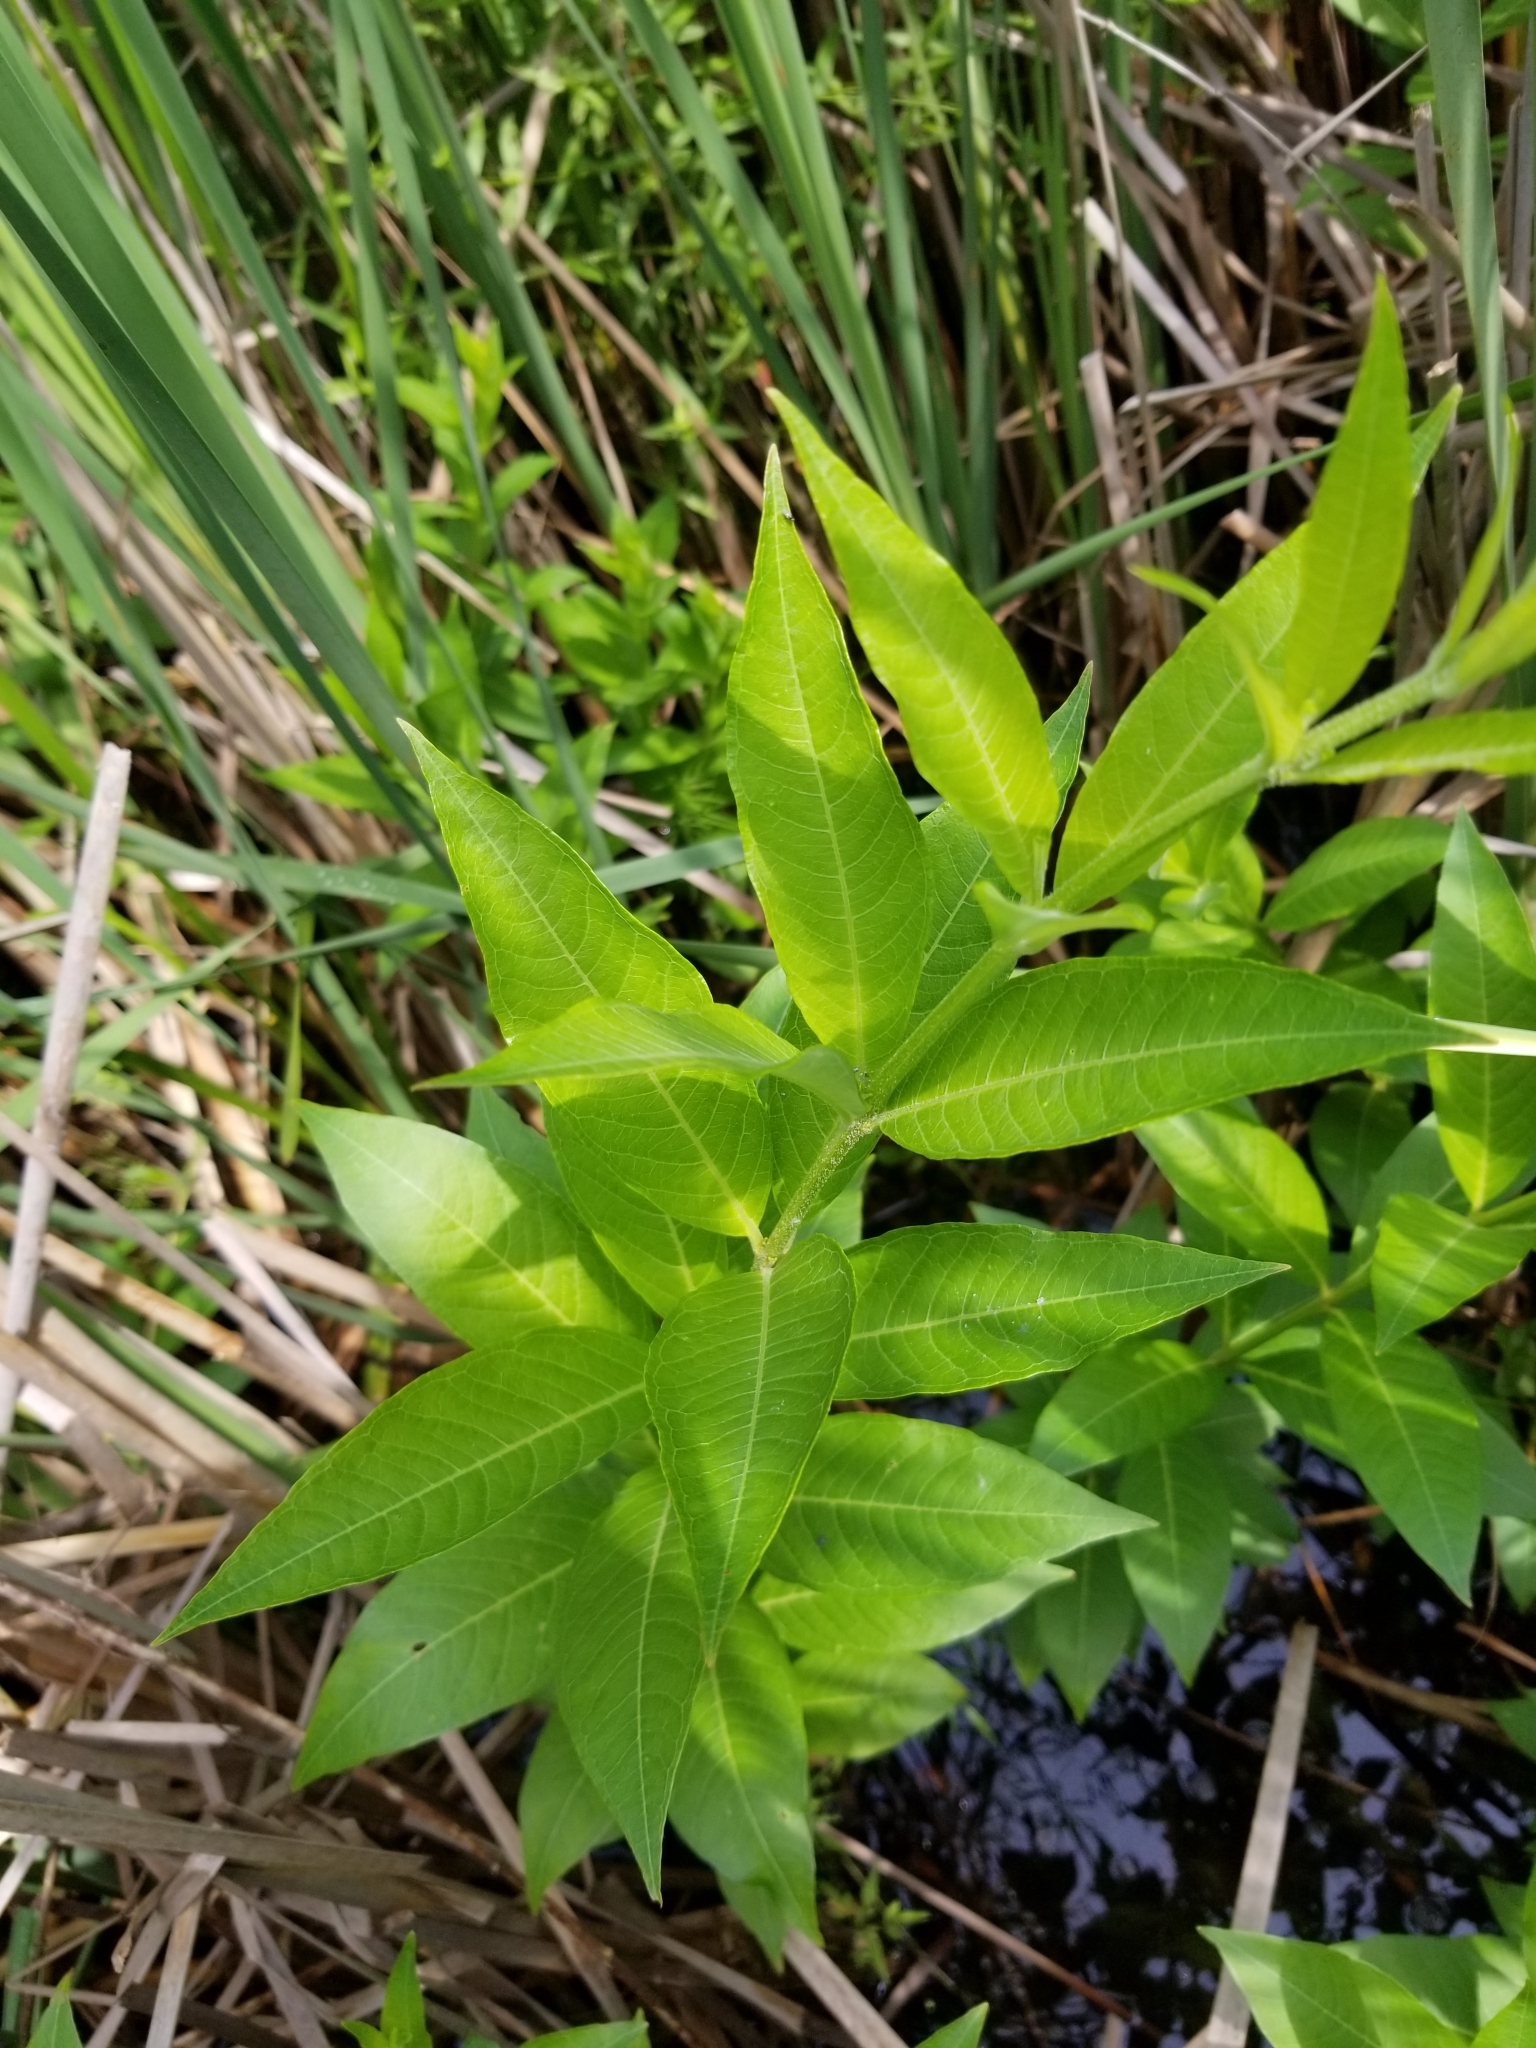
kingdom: Plantae
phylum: Tracheophyta
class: Magnoliopsida
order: Myrtales
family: Lythraceae
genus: Decodon
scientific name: Decodon verticillatus
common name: Hairy swamp loosestrife
